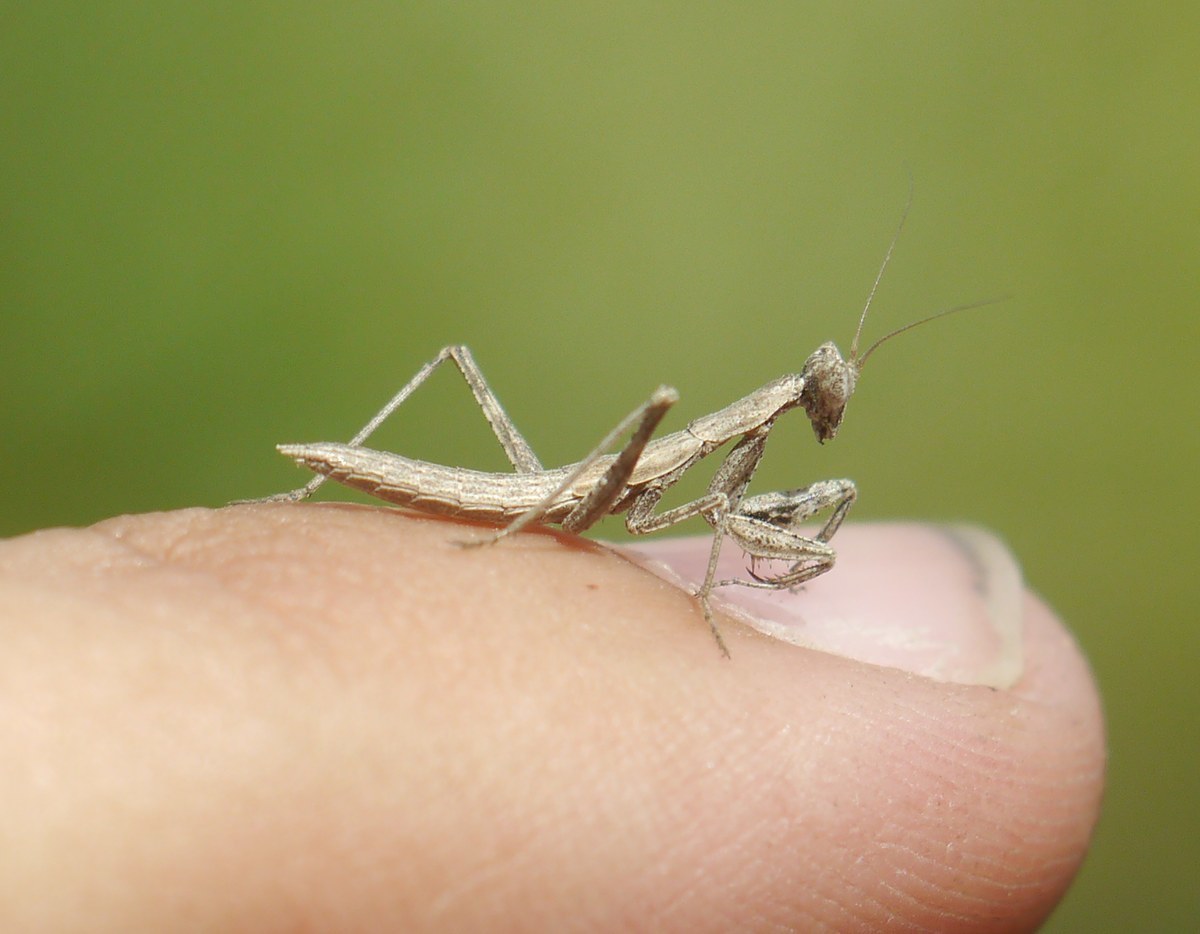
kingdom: Animalia
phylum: Arthropoda
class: Insecta
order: Mantodea
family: Amelidae
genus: Ameles
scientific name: Ameles heldreichi
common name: Heldreich's dwarf mantis
